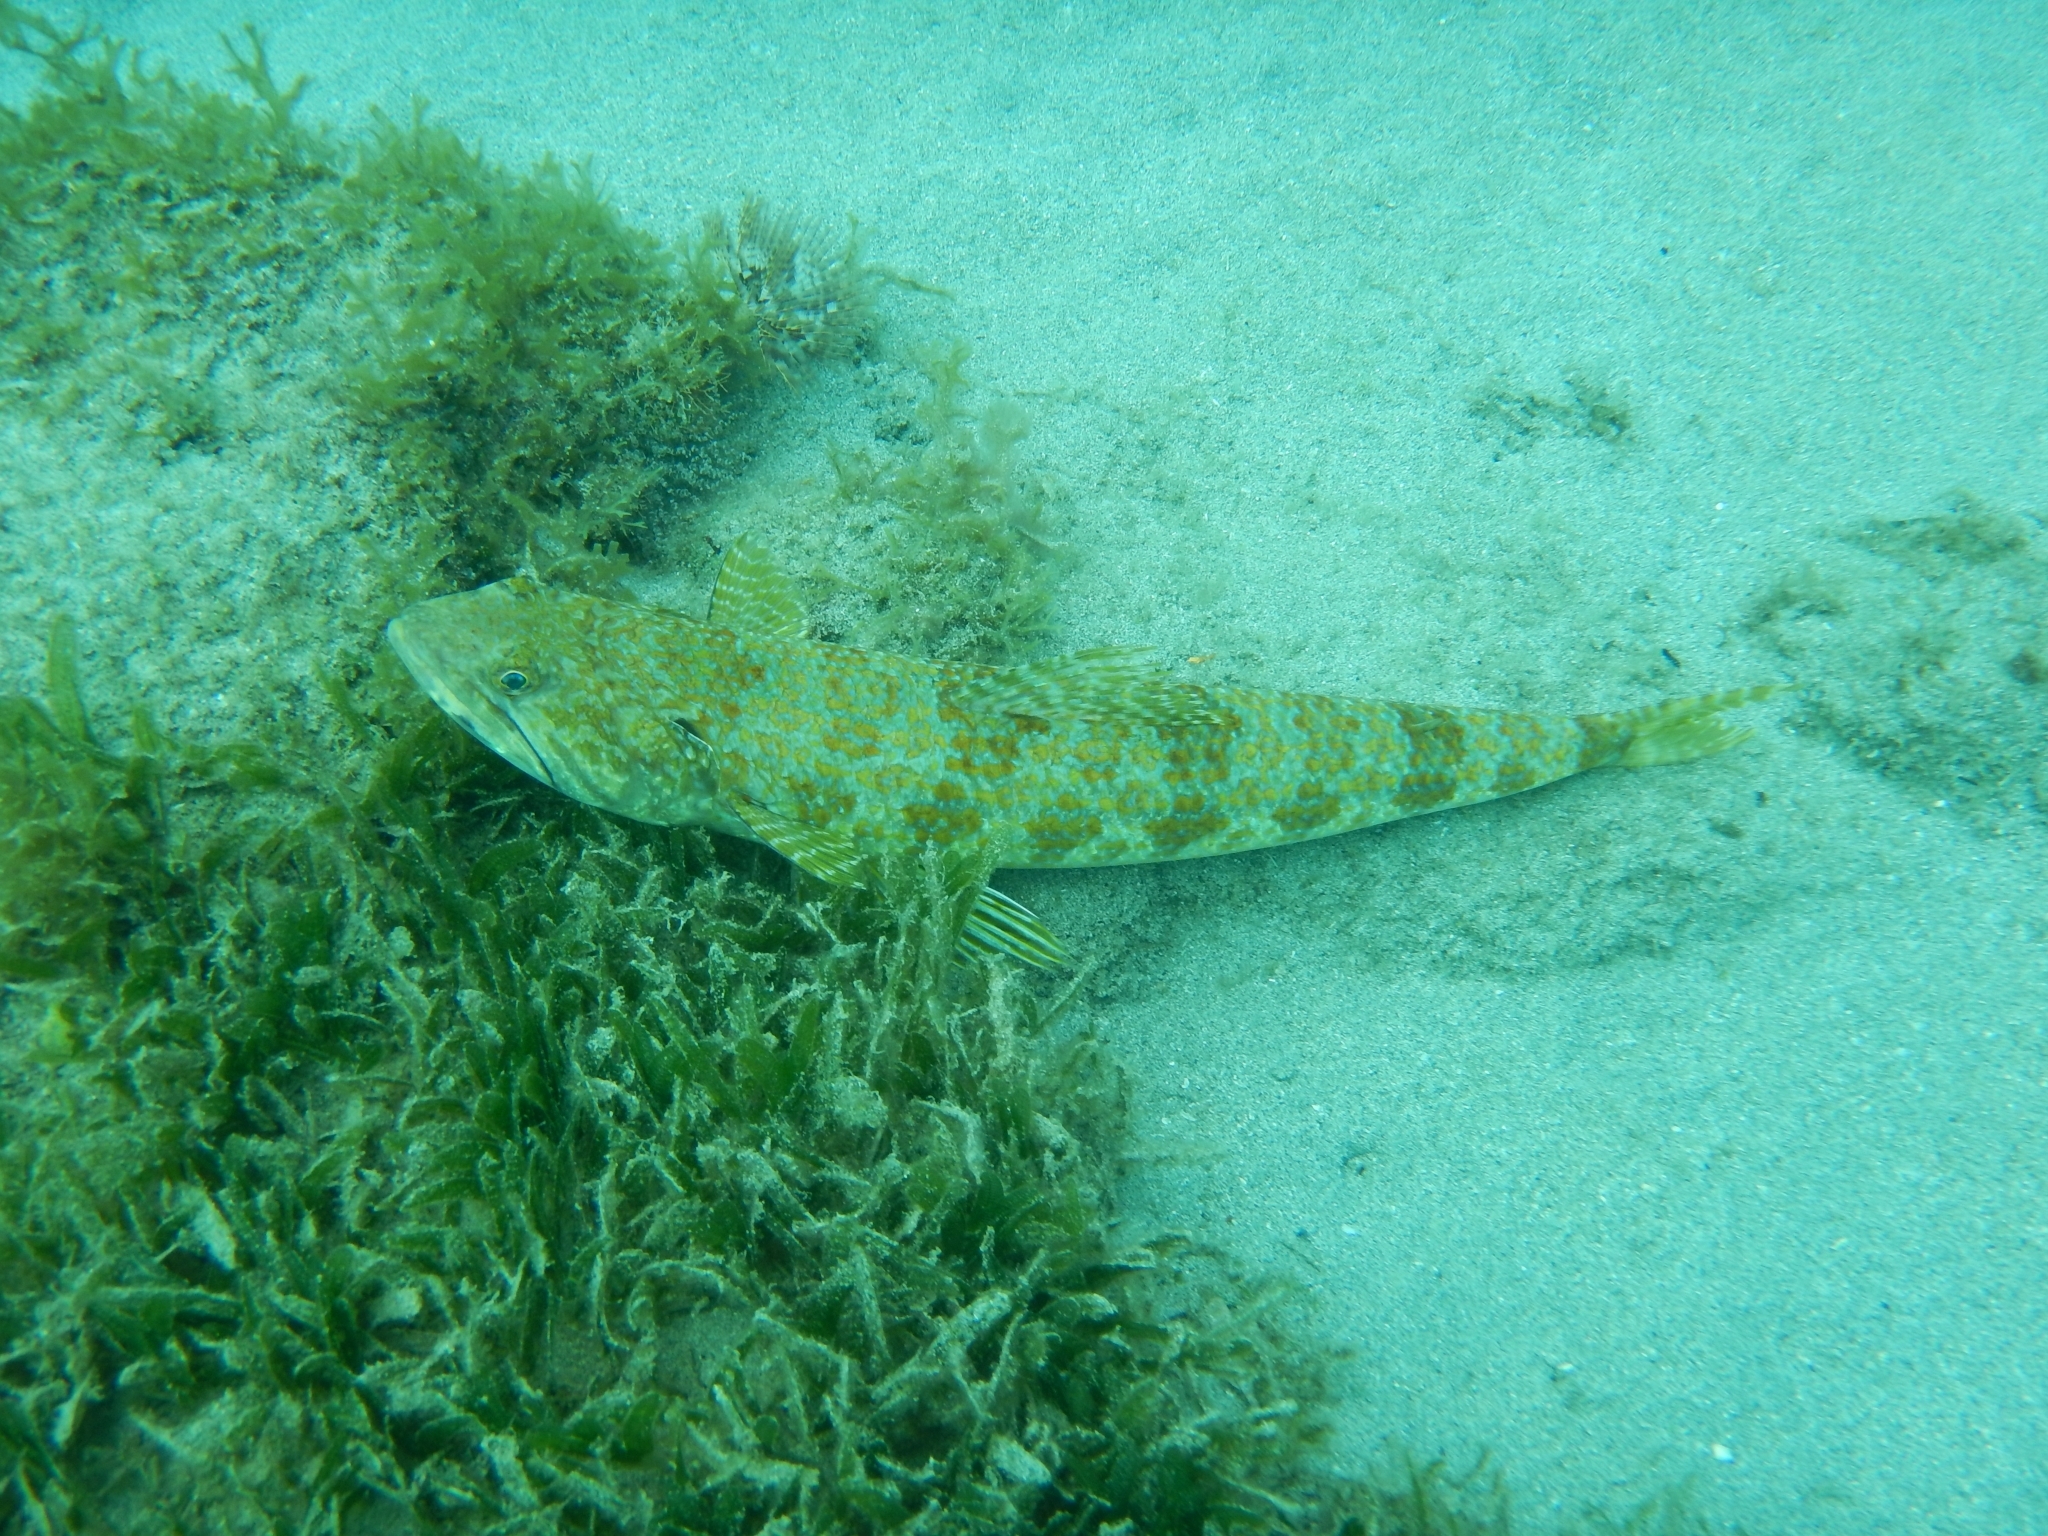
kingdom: Animalia
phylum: Chordata
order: Aulopiformes
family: Synodontidae
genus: Synodus
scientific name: Synodus intermedius
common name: Sand diver
